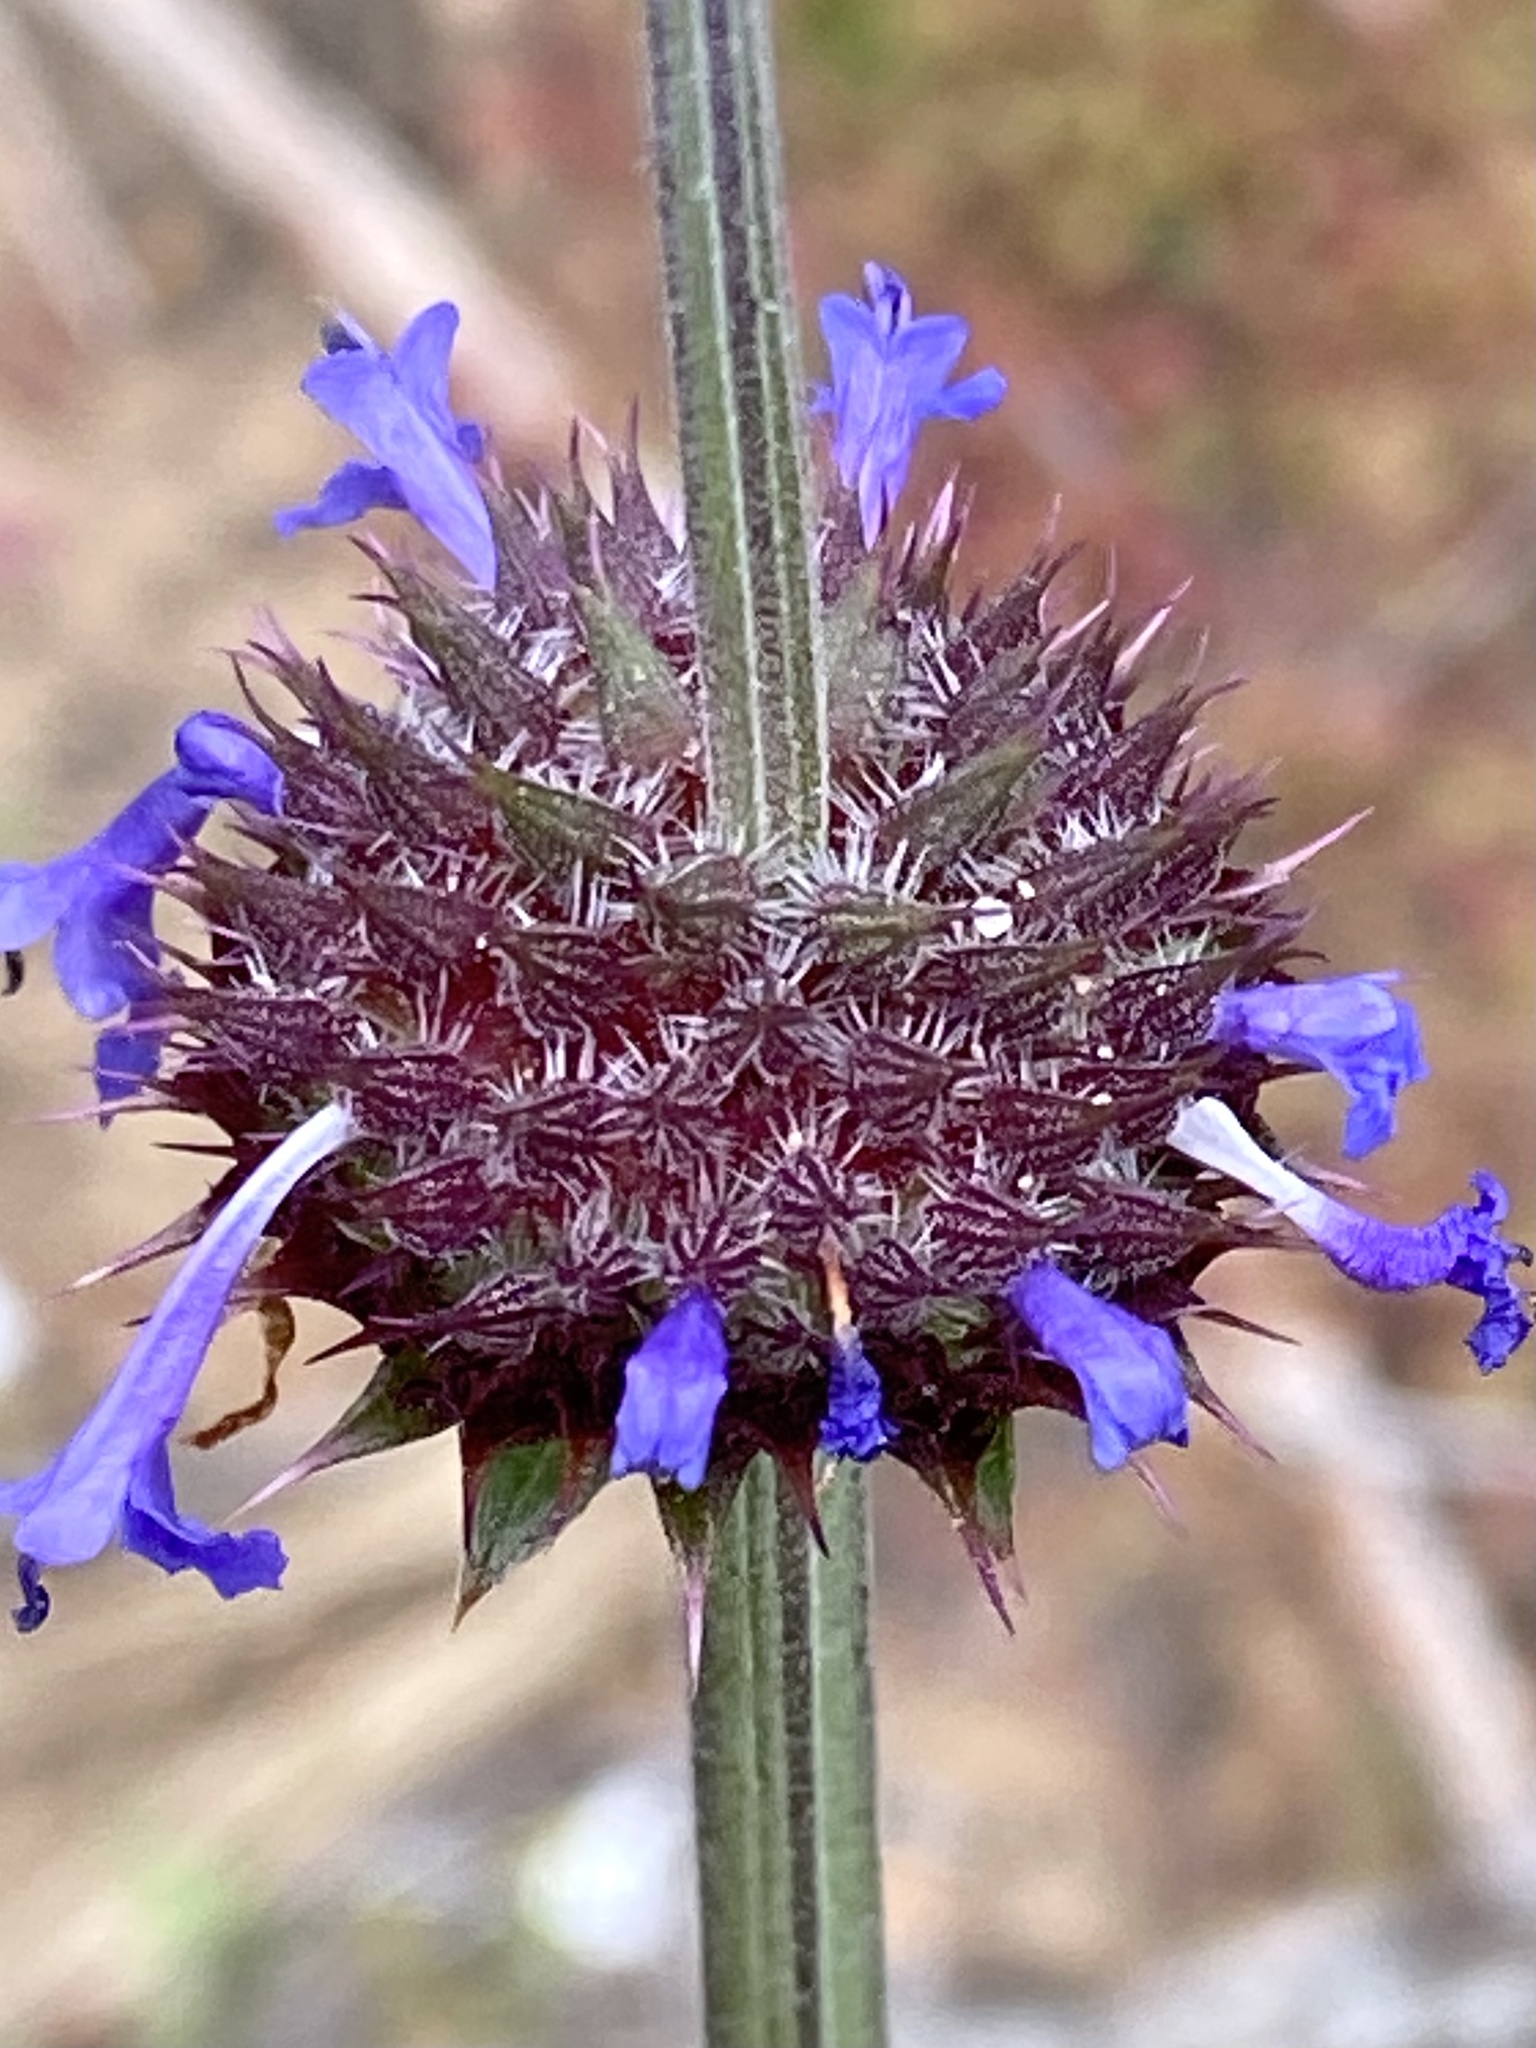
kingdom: Plantae
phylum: Tracheophyta
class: Magnoliopsida
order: Lamiales
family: Lamiaceae
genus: Salvia
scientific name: Salvia columbariae
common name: Chia
